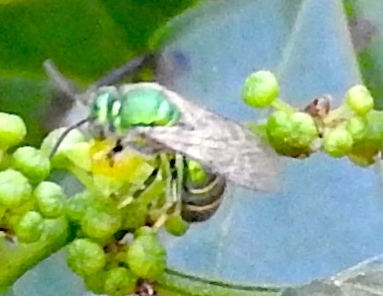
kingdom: Animalia
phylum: Arthropoda
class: Insecta
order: Hymenoptera
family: Halictidae
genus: Augochloropsis
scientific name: Augochloropsis
